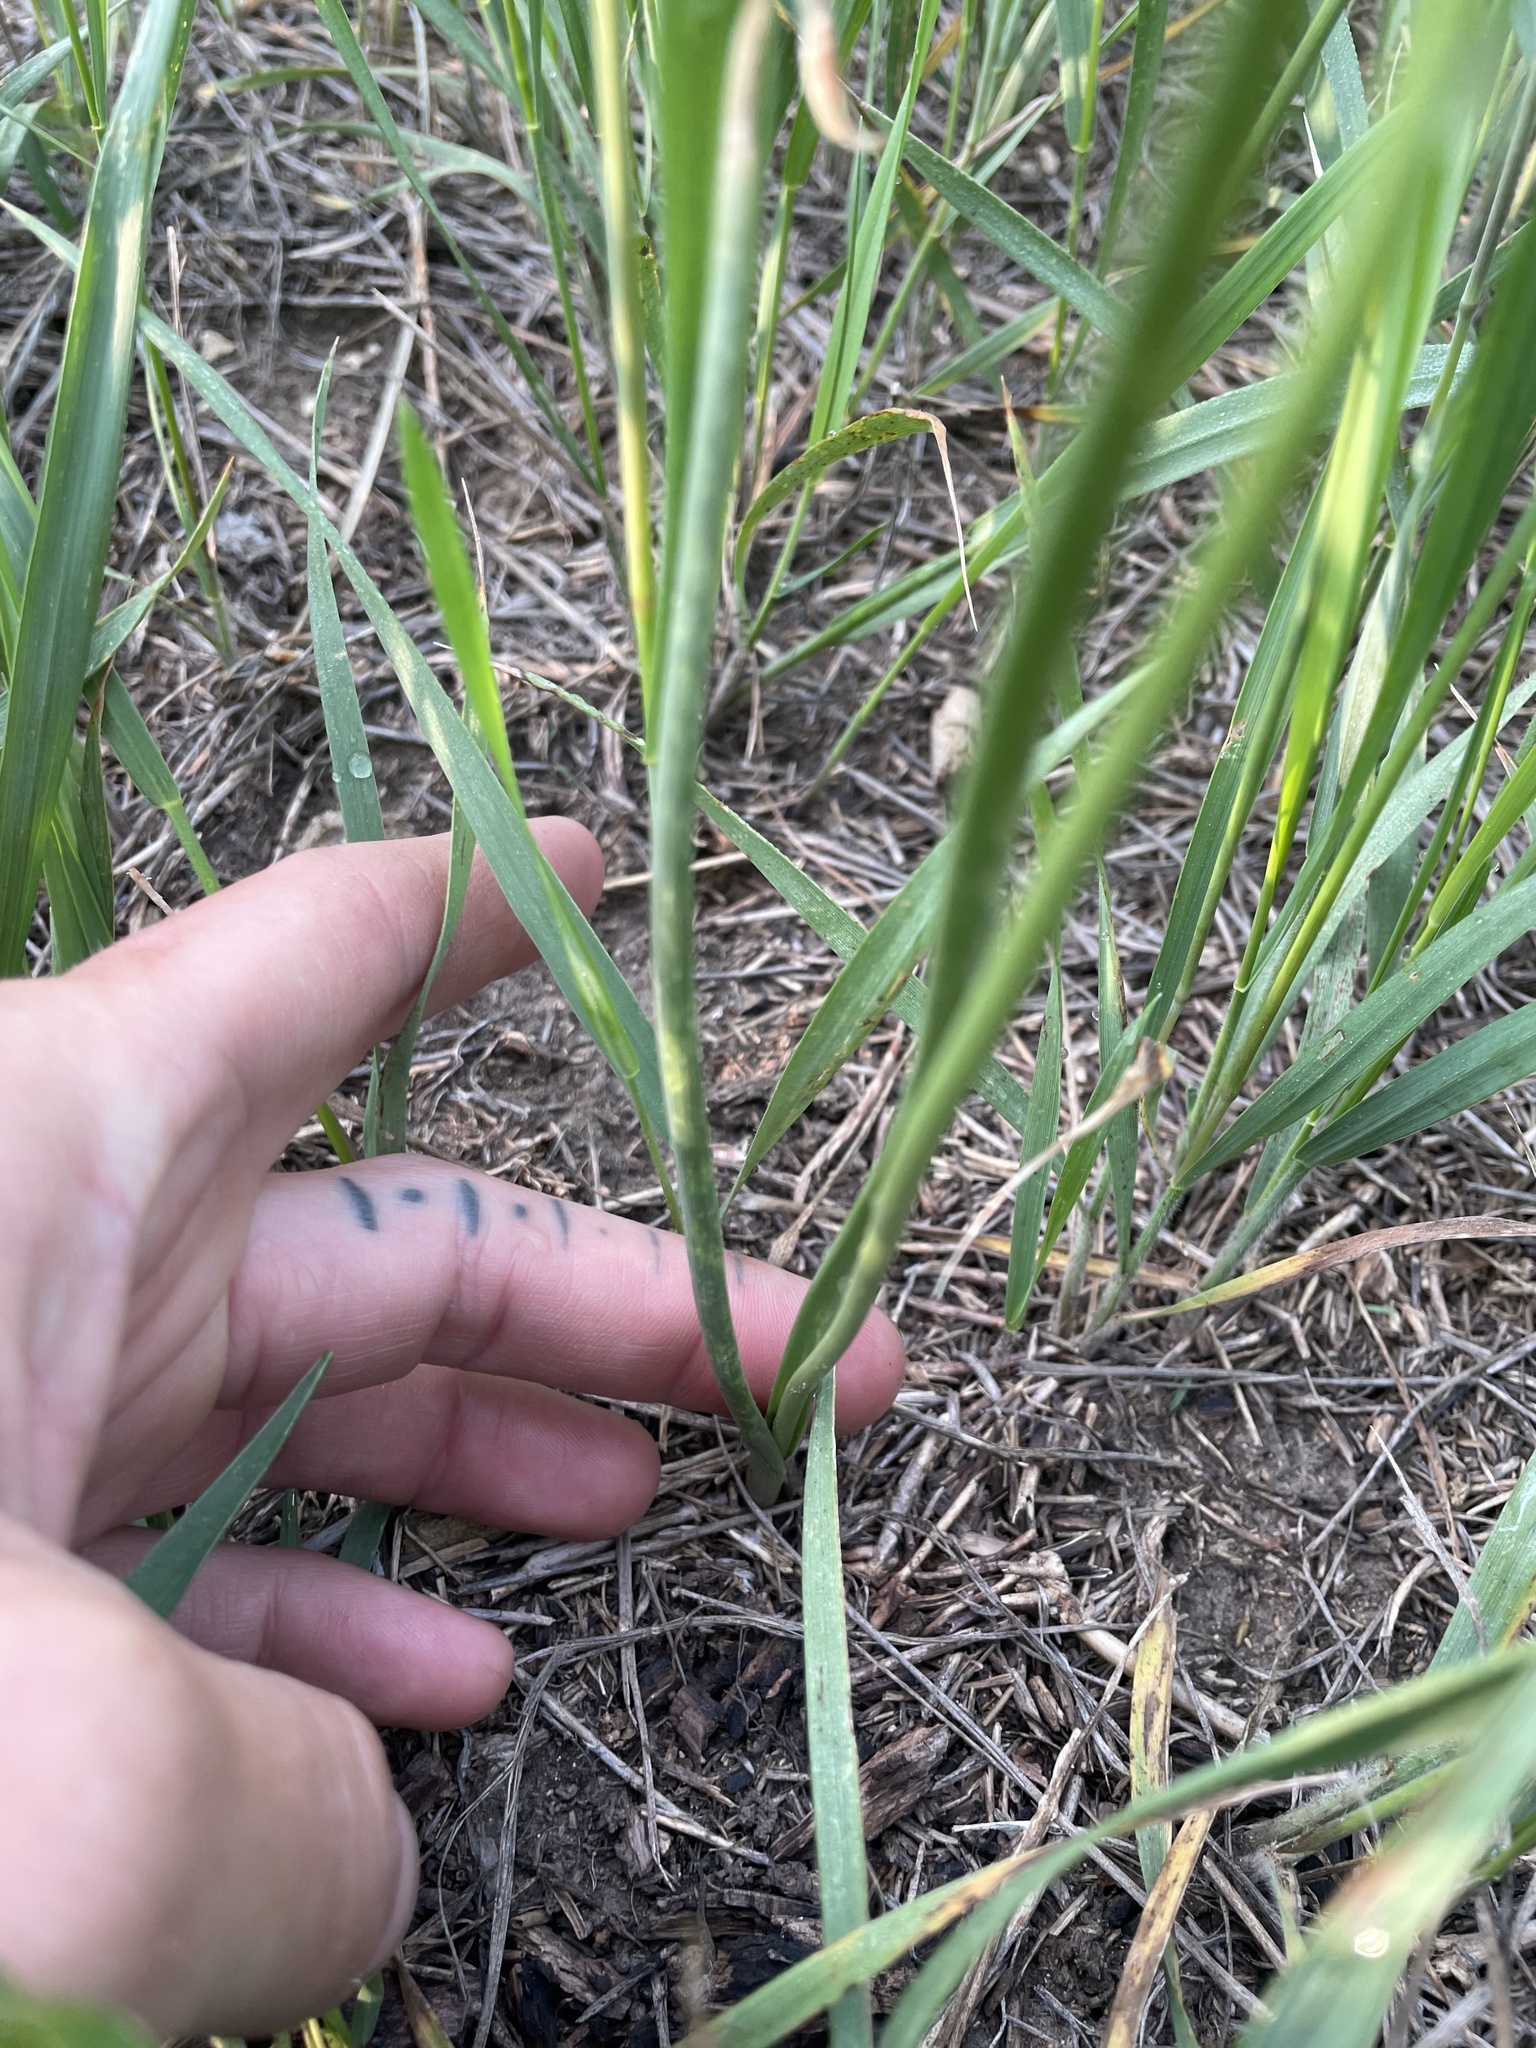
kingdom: Plantae
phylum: Tracheophyta
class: Liliopsida
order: Asparagales
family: Amaryllidaceae
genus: Allium
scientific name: Allium textile
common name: Prairie onion
